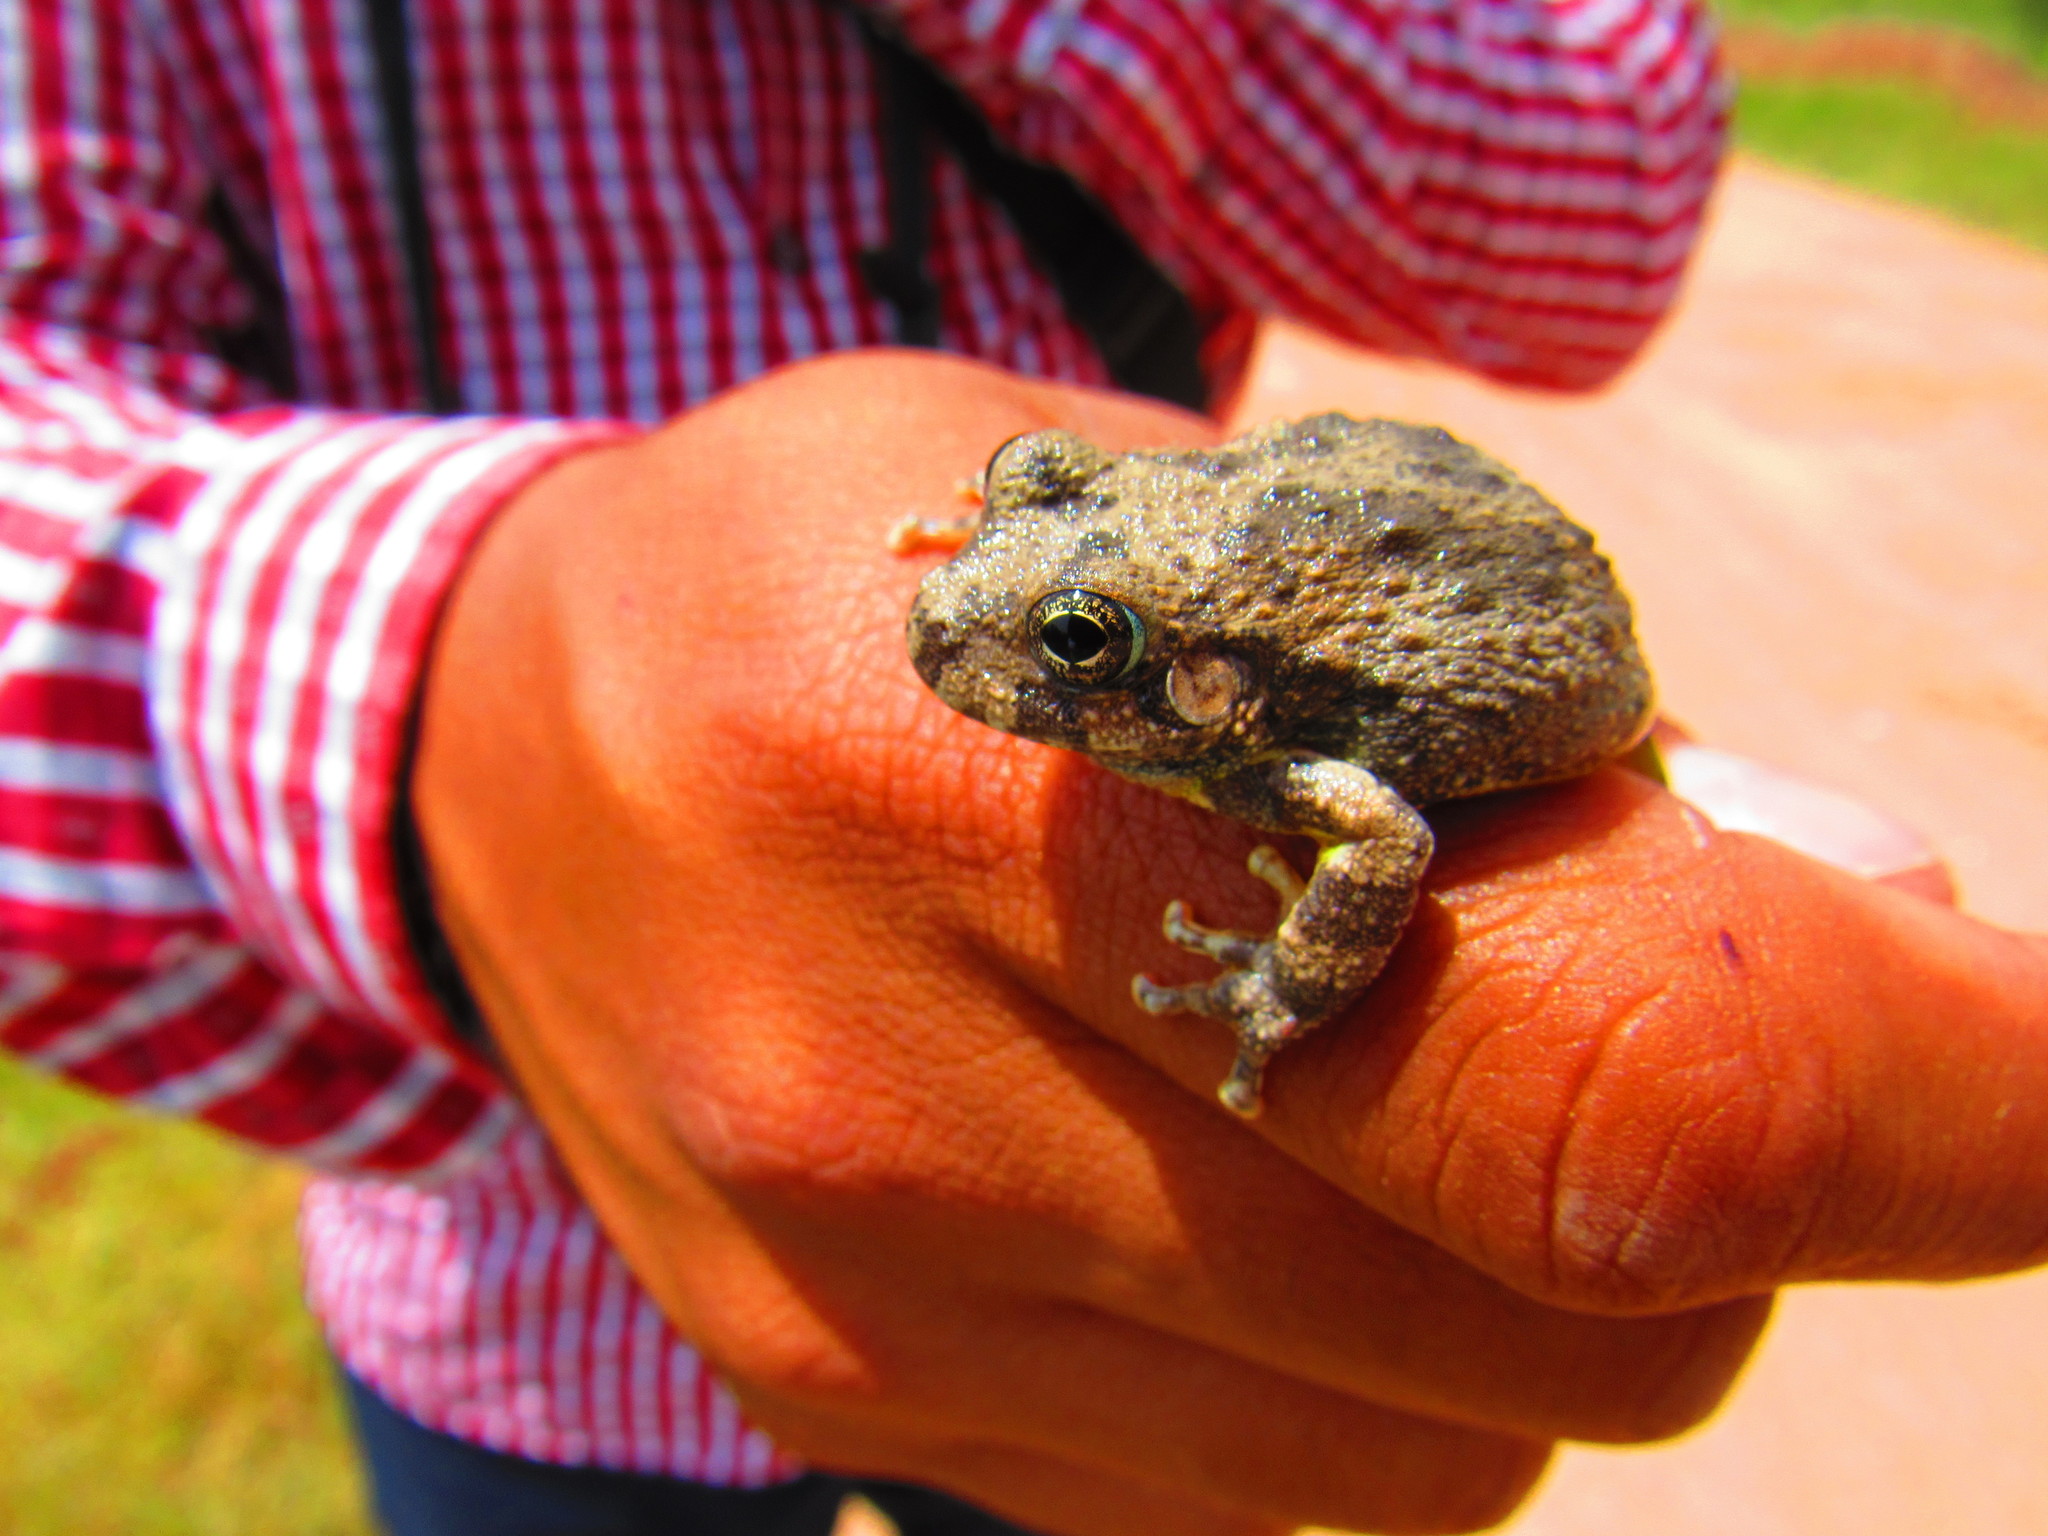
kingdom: Animalia
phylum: Chordata
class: Amphibia
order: Anura
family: Hylidae
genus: Dryophytes
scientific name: Dryophytes arenicolor
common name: Canyon treefrog
